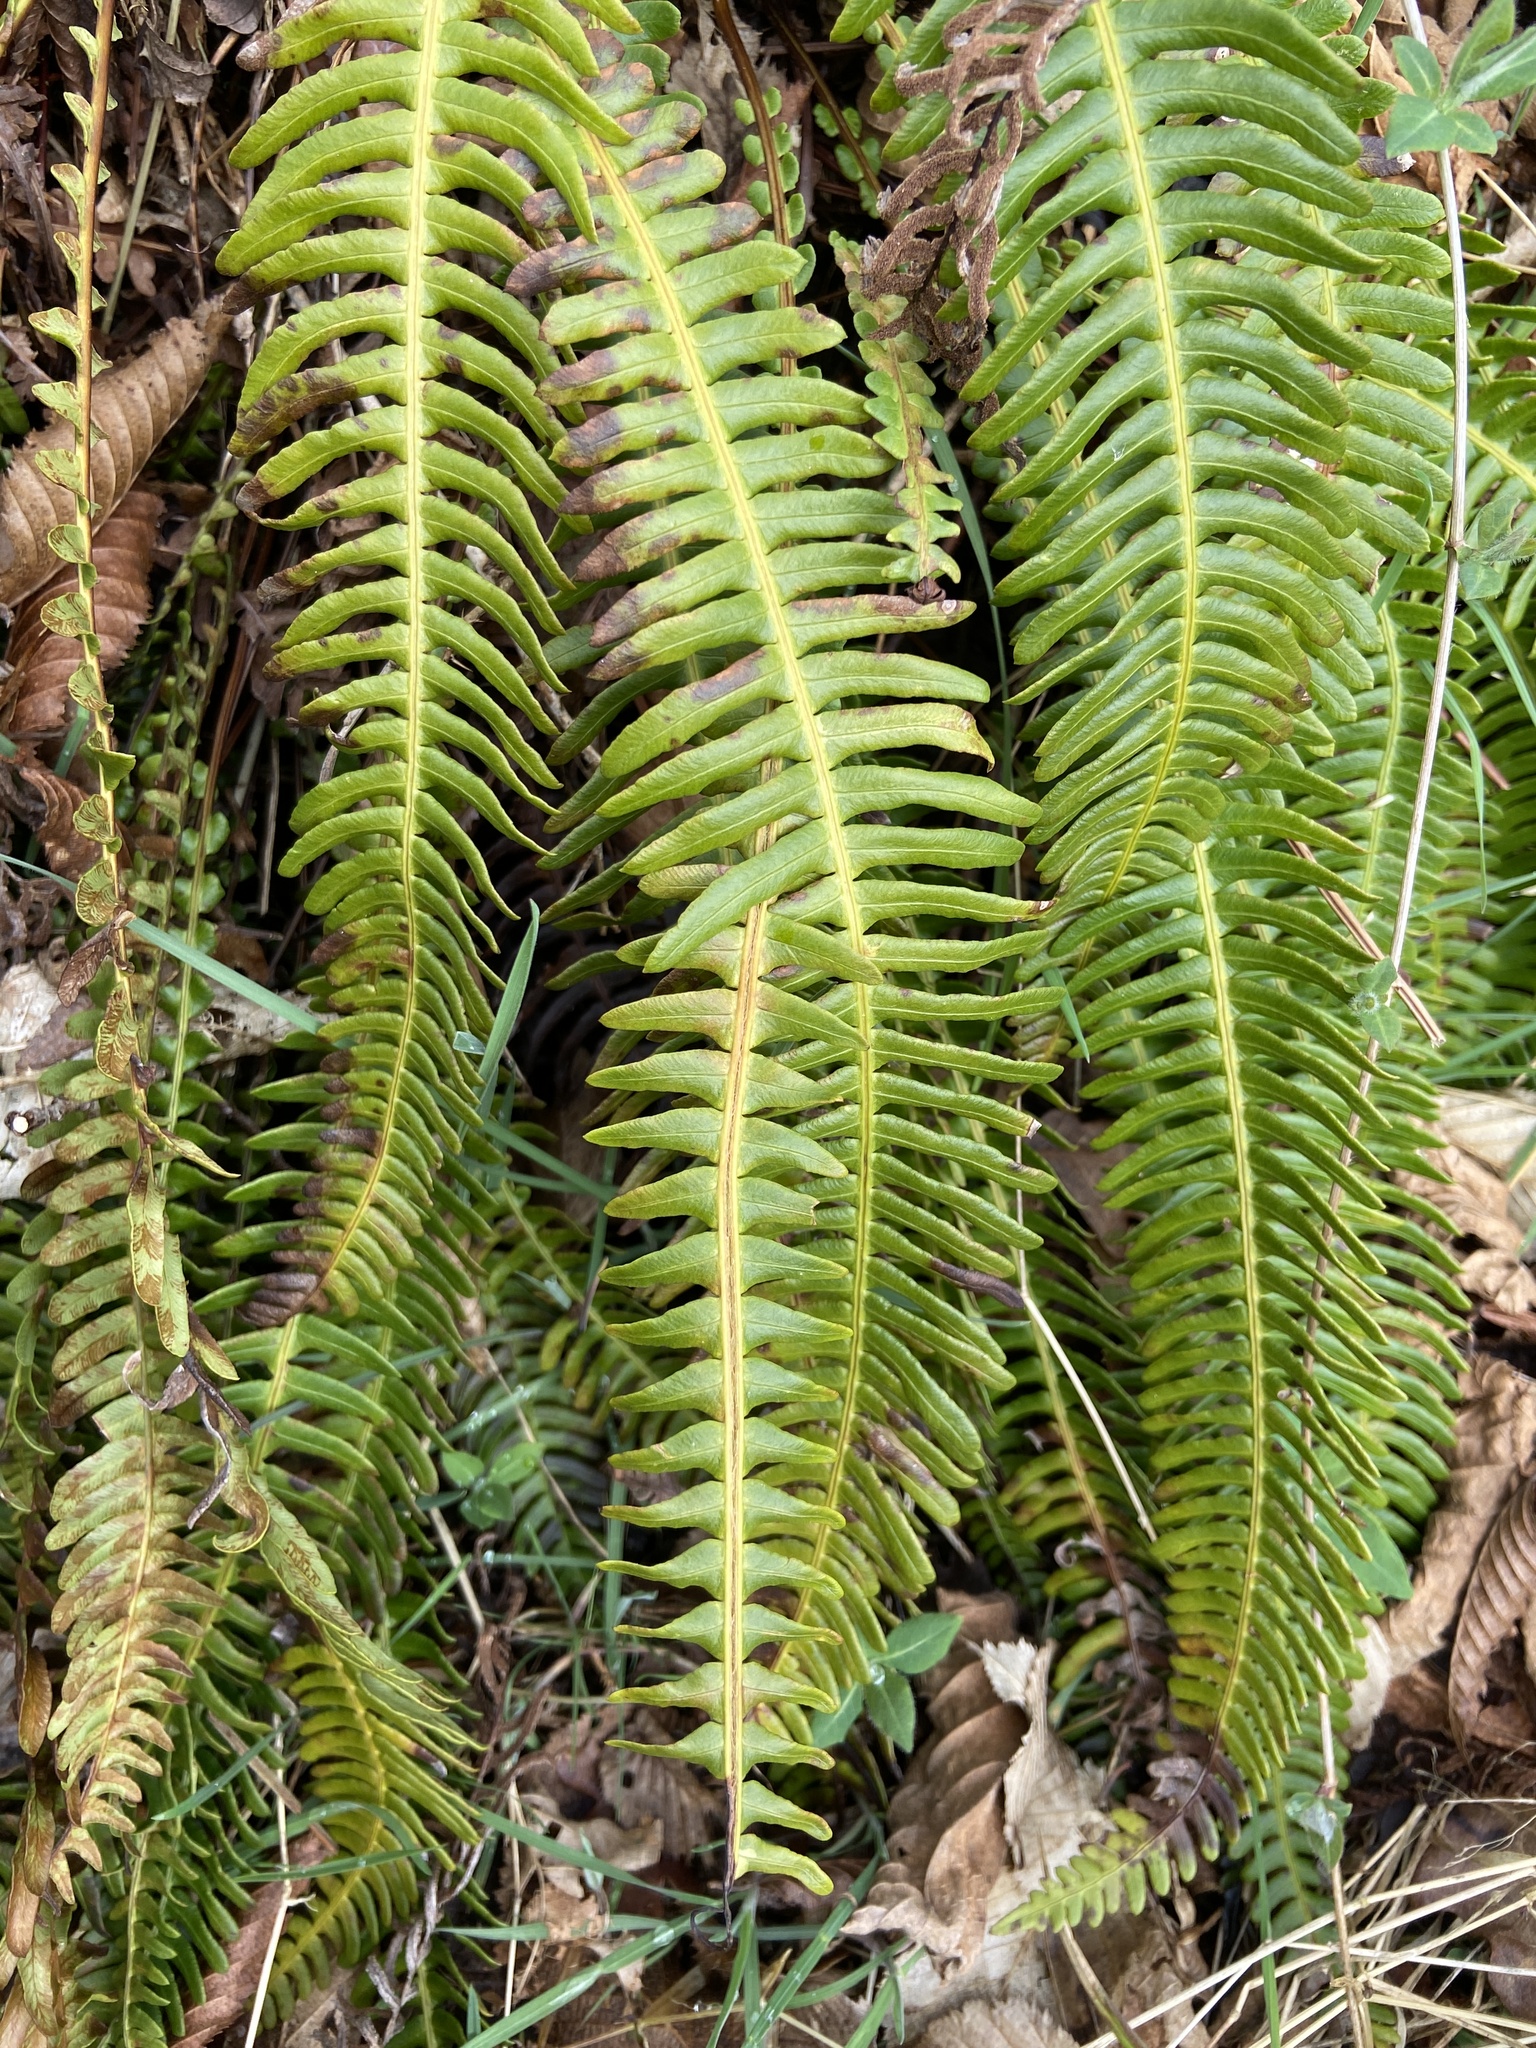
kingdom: Plantae
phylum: Tracheophyta
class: Polypodiopsida
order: Polypodiales
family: Blechnaceae
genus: Struthiopteris
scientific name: Struthiopteris spicant
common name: Deer fern
